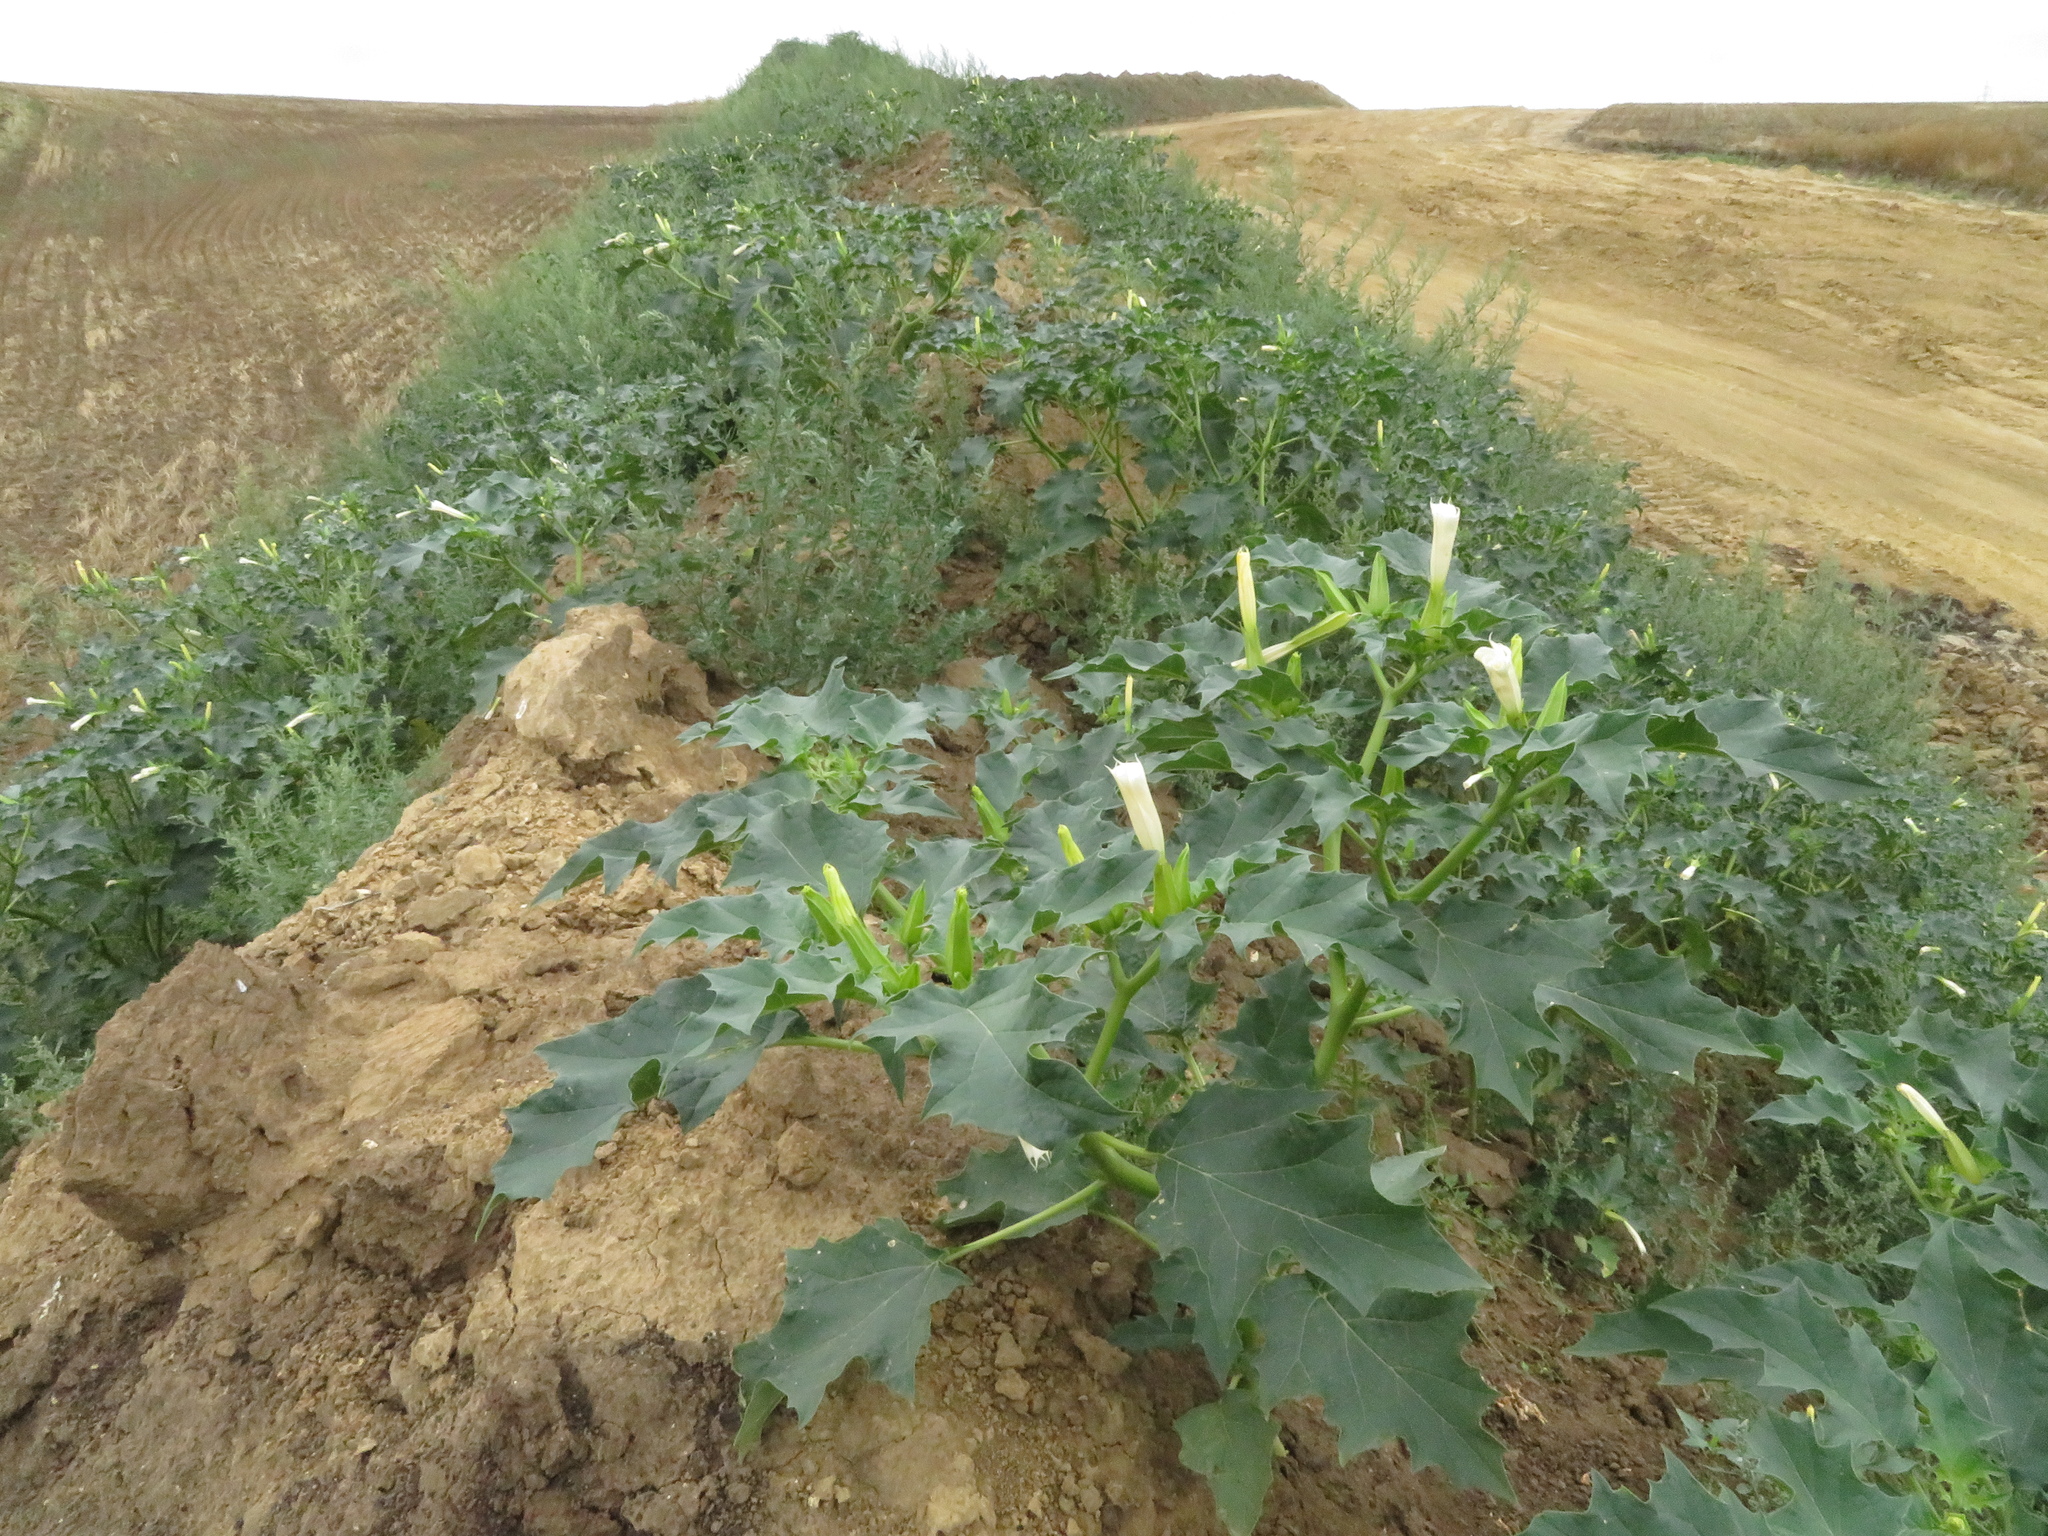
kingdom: Plantae
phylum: Tracheophyta
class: Magnoliopsida
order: Solanales
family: Solanaceae
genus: Datura
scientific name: Datura stramonium
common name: Thorn-apple
